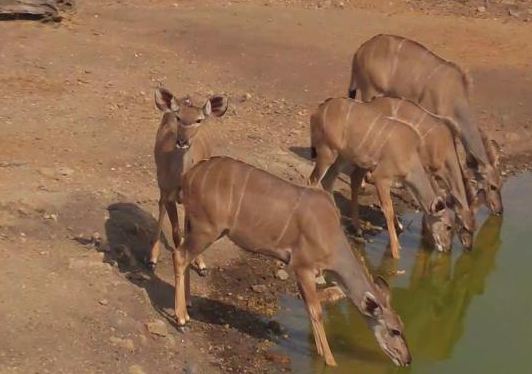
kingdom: Animalia
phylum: Chordata
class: Mammalia
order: Artiodactyla
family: Bovidae
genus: Tragelaphus
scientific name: Tragelaphus strepsiceros
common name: Greater kudu
